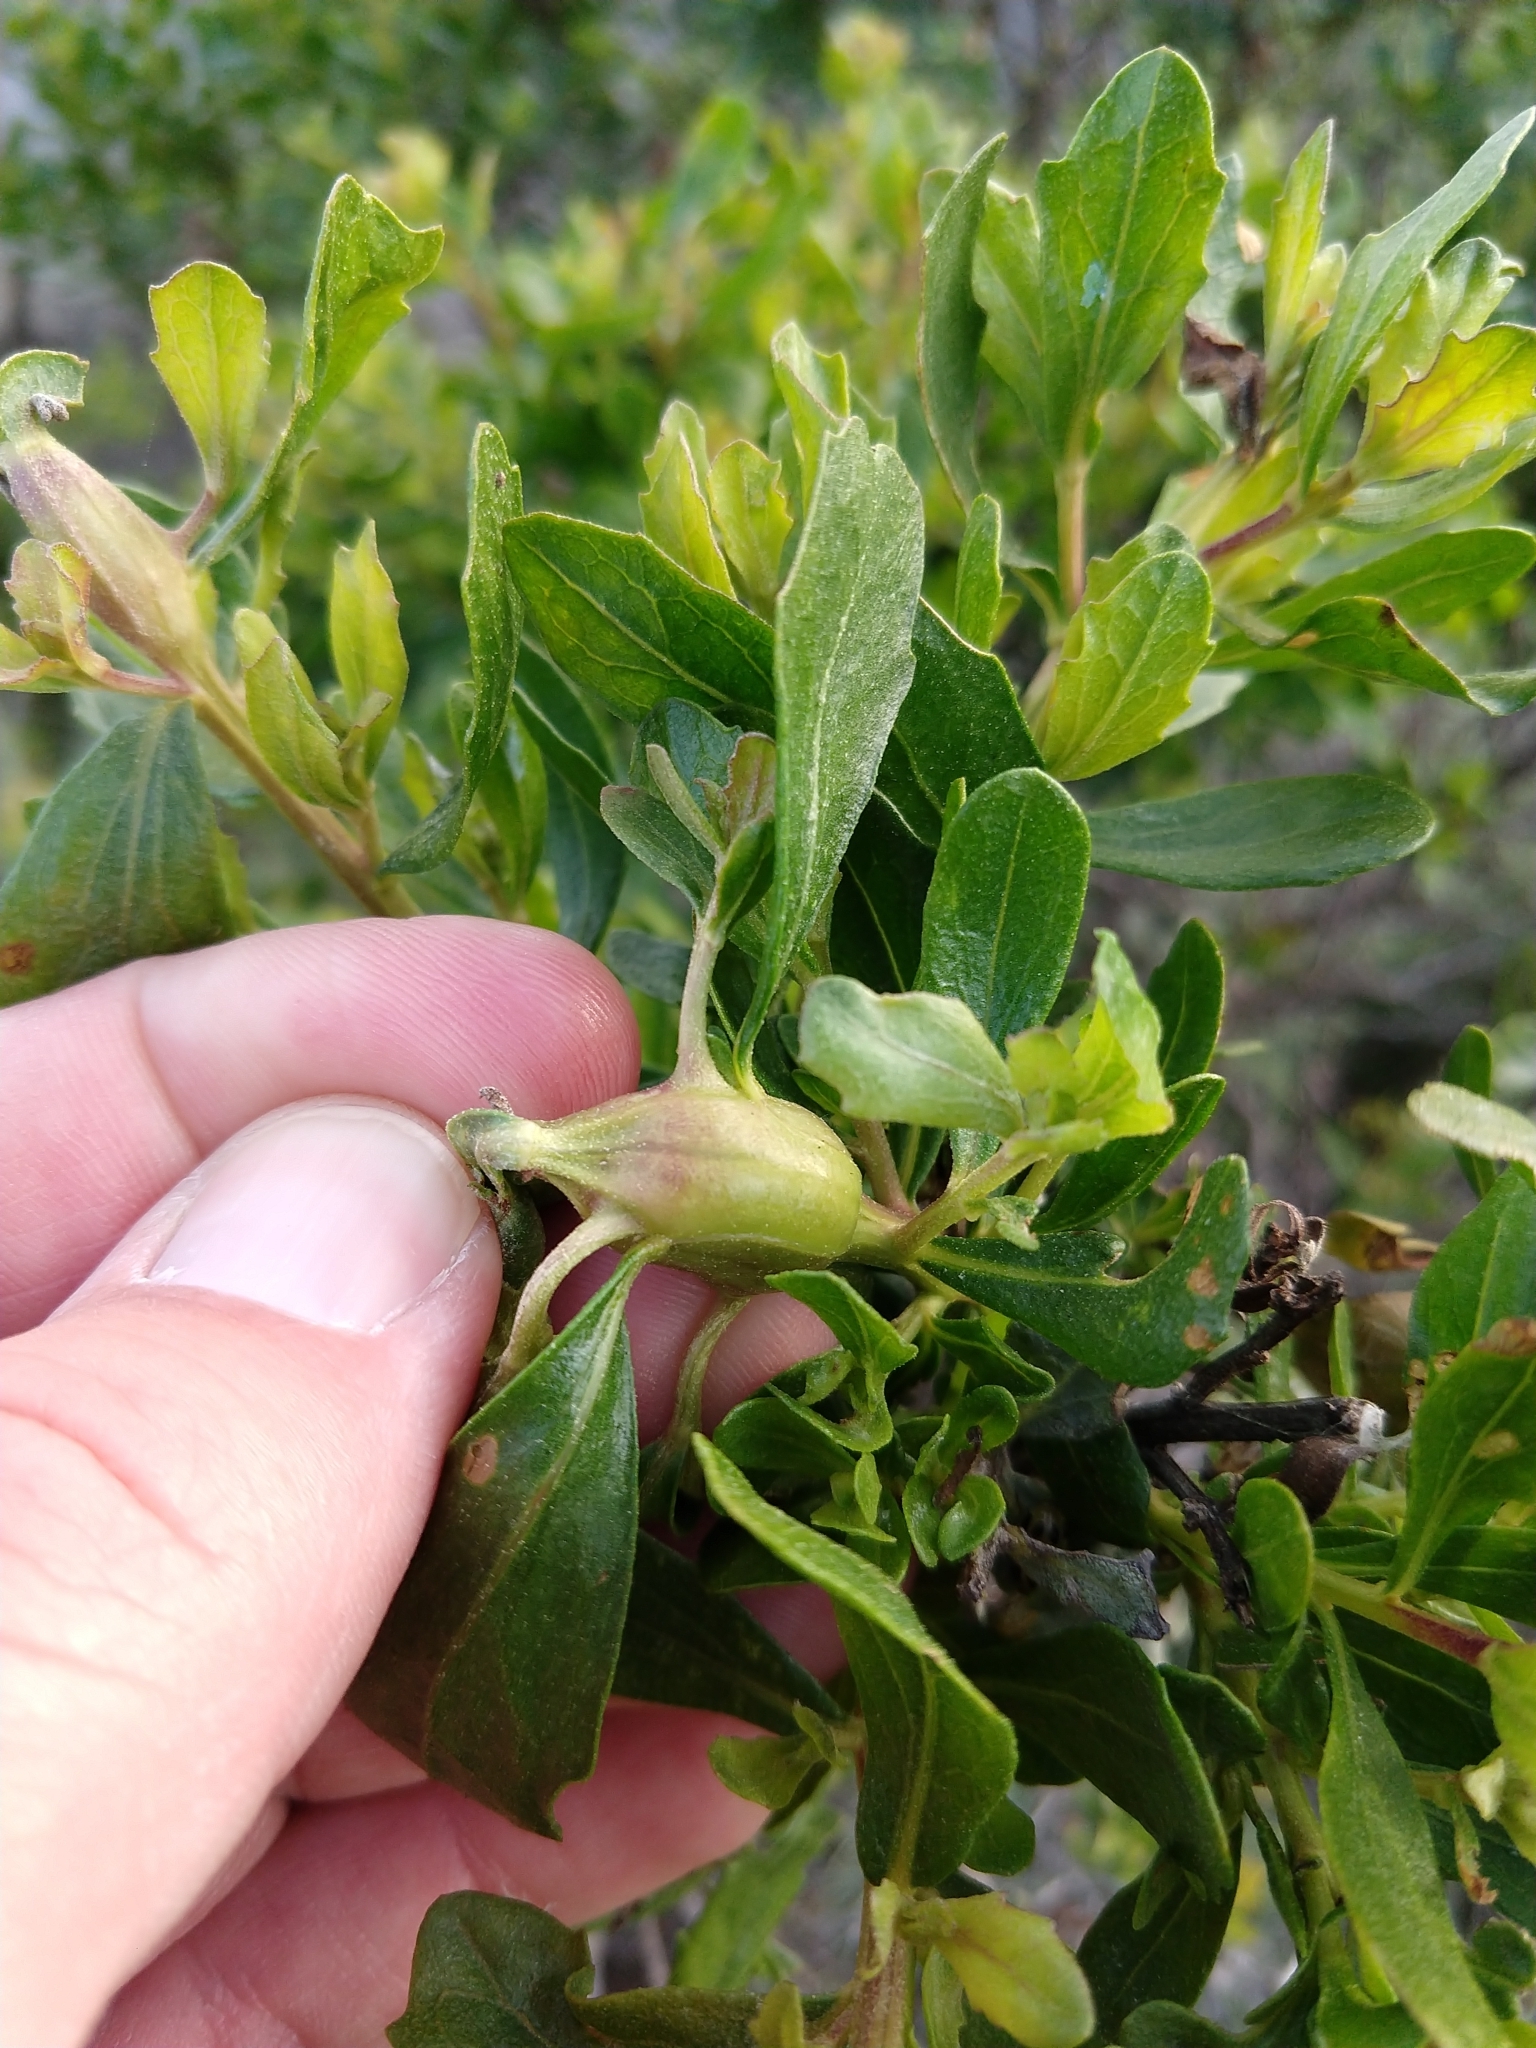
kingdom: Animalia
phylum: Arthropoda
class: Insecta
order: Lepidoptera
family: Gelechiidae
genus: Gnorimoschema
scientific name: Gnorimoschema baccharisella
